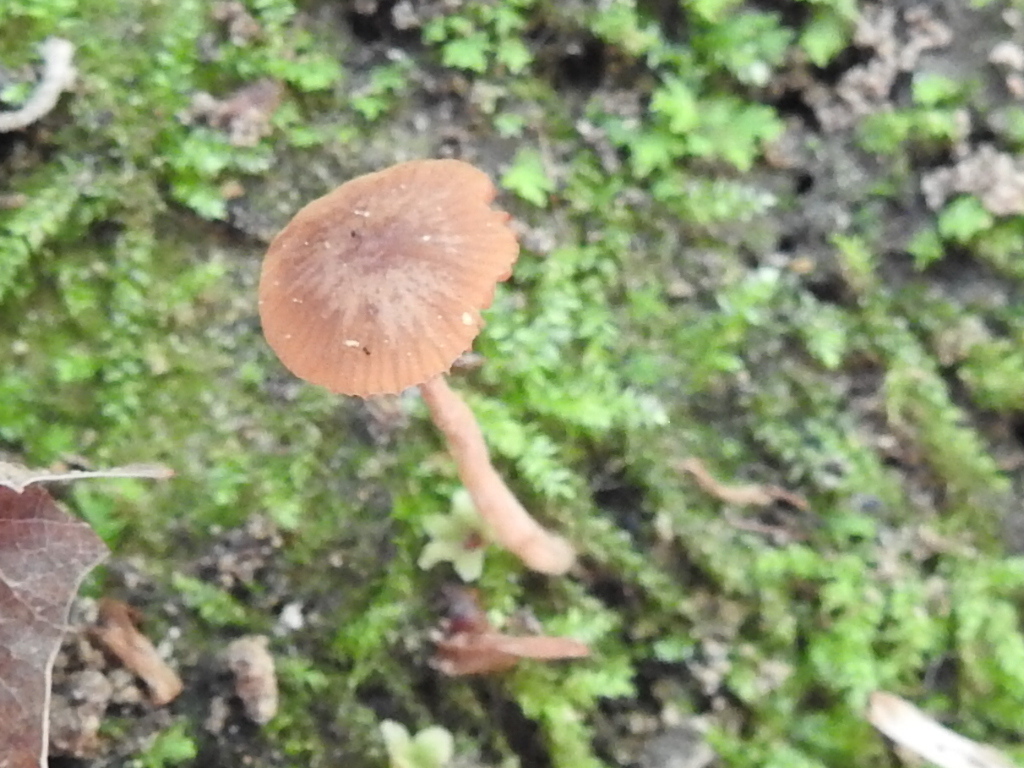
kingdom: Fungi
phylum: Basidiomycota
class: Agaricomycetes
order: Agaricales
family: Hydnangiaceae
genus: Laccaria
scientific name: Laccaria laccata
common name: Deceiver
